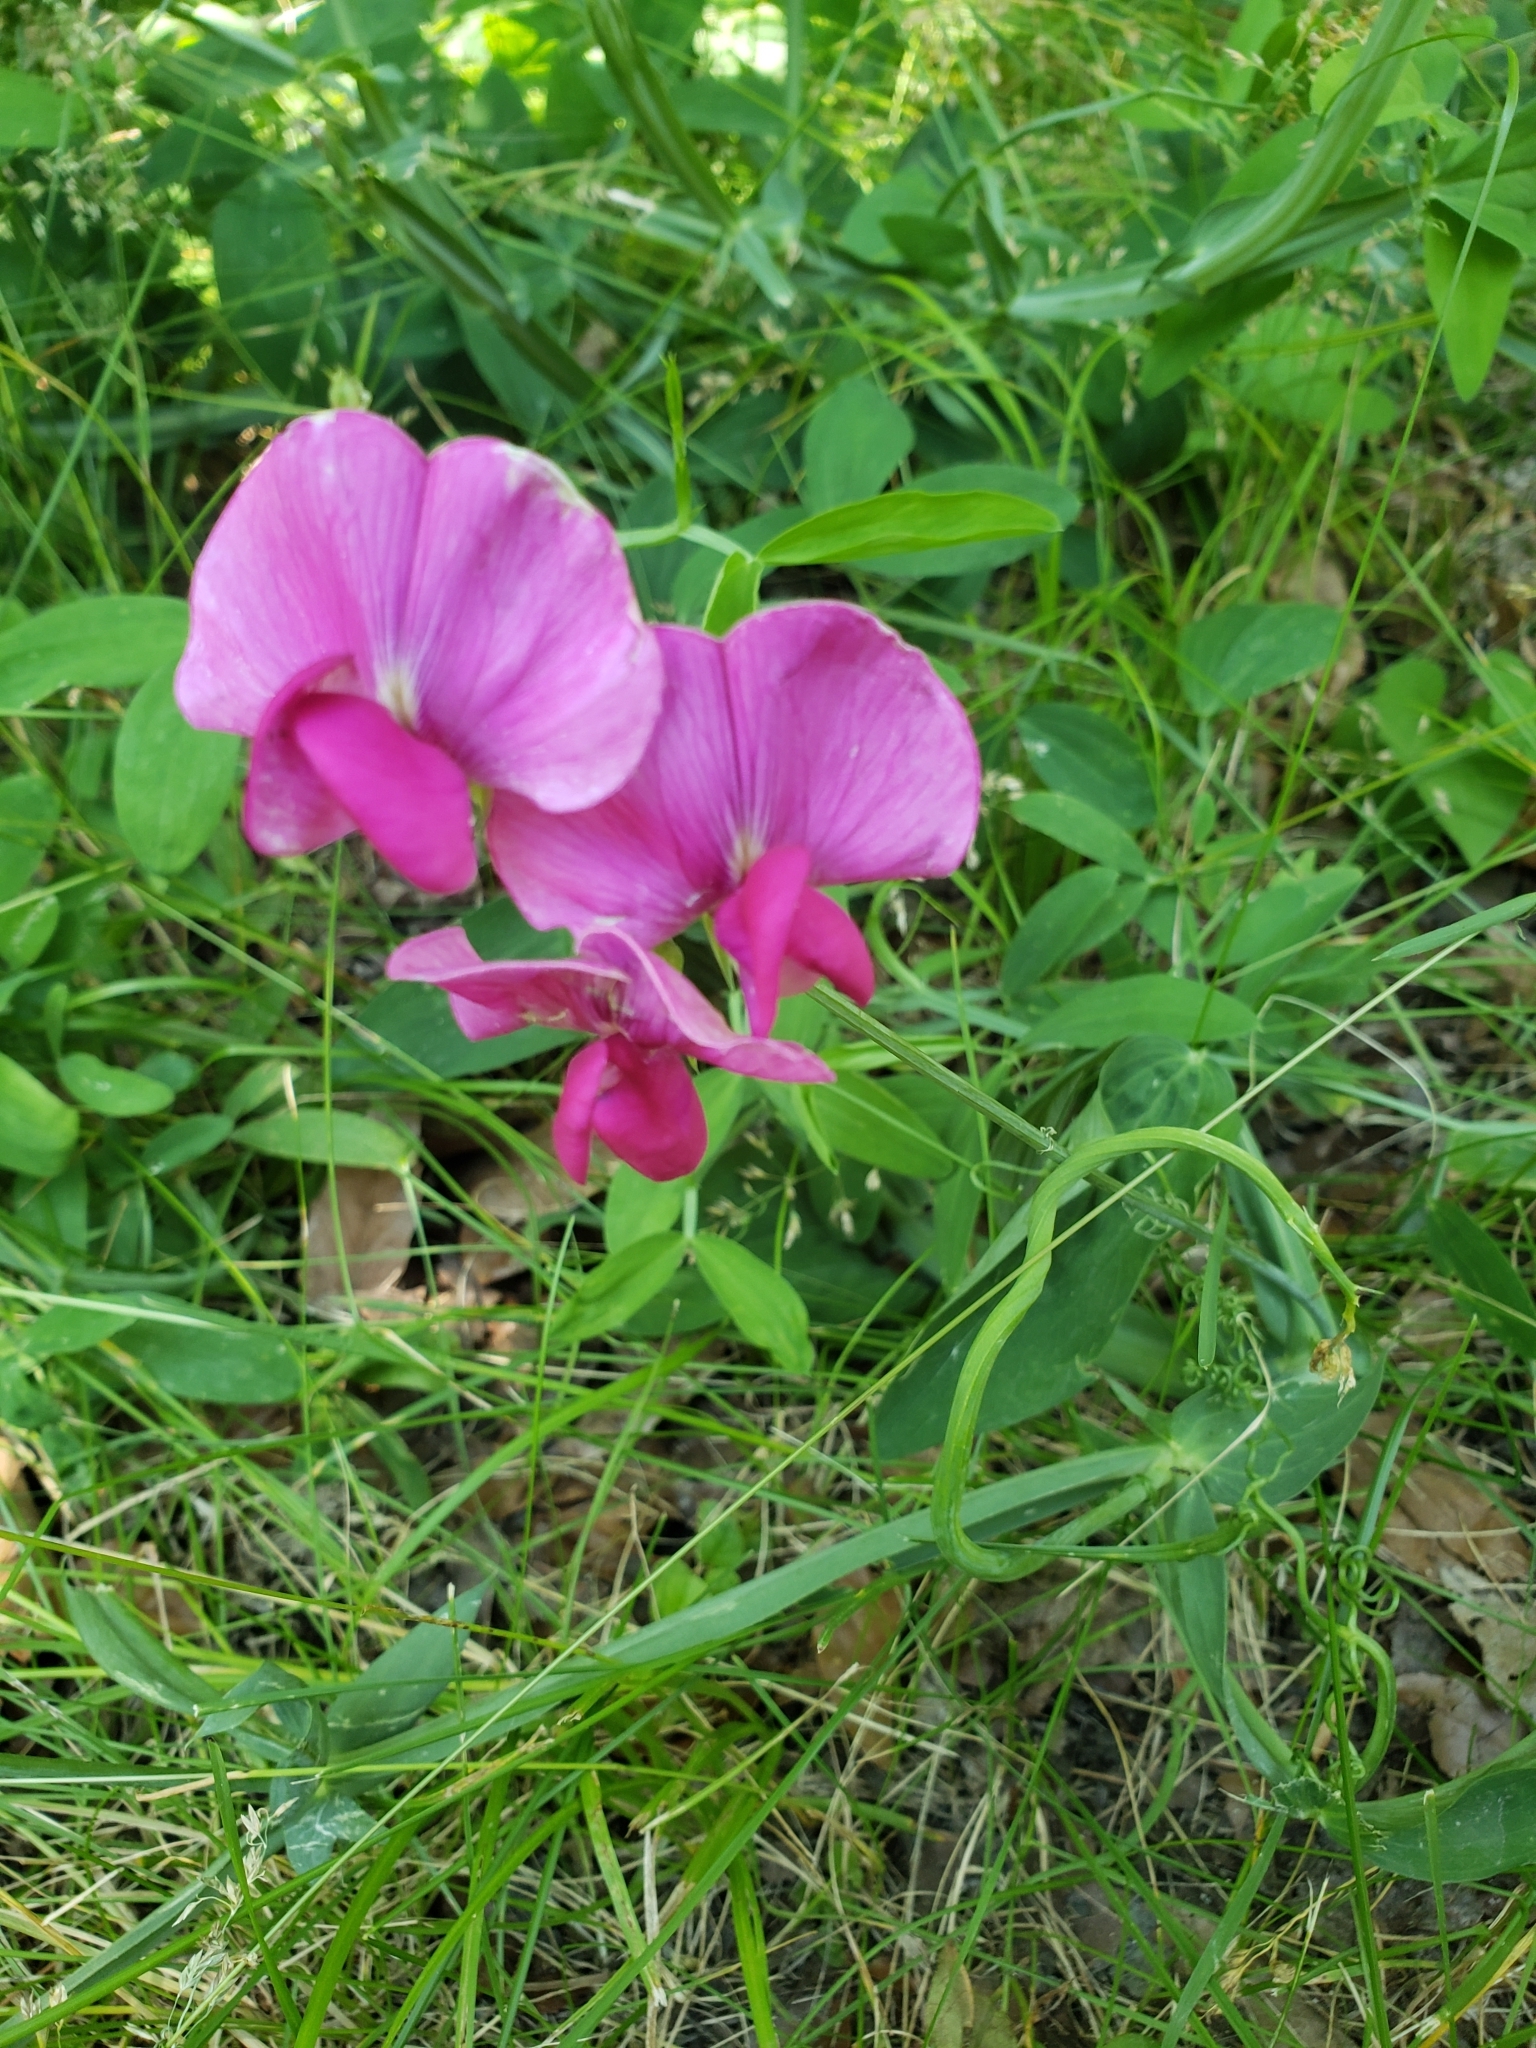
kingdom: Plantae
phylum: Tracheophyta
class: Magnoliopsida
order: Fabales
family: Fabaceae
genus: Lathyrus
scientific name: Lathyrus latifolius
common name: Perennial pea
